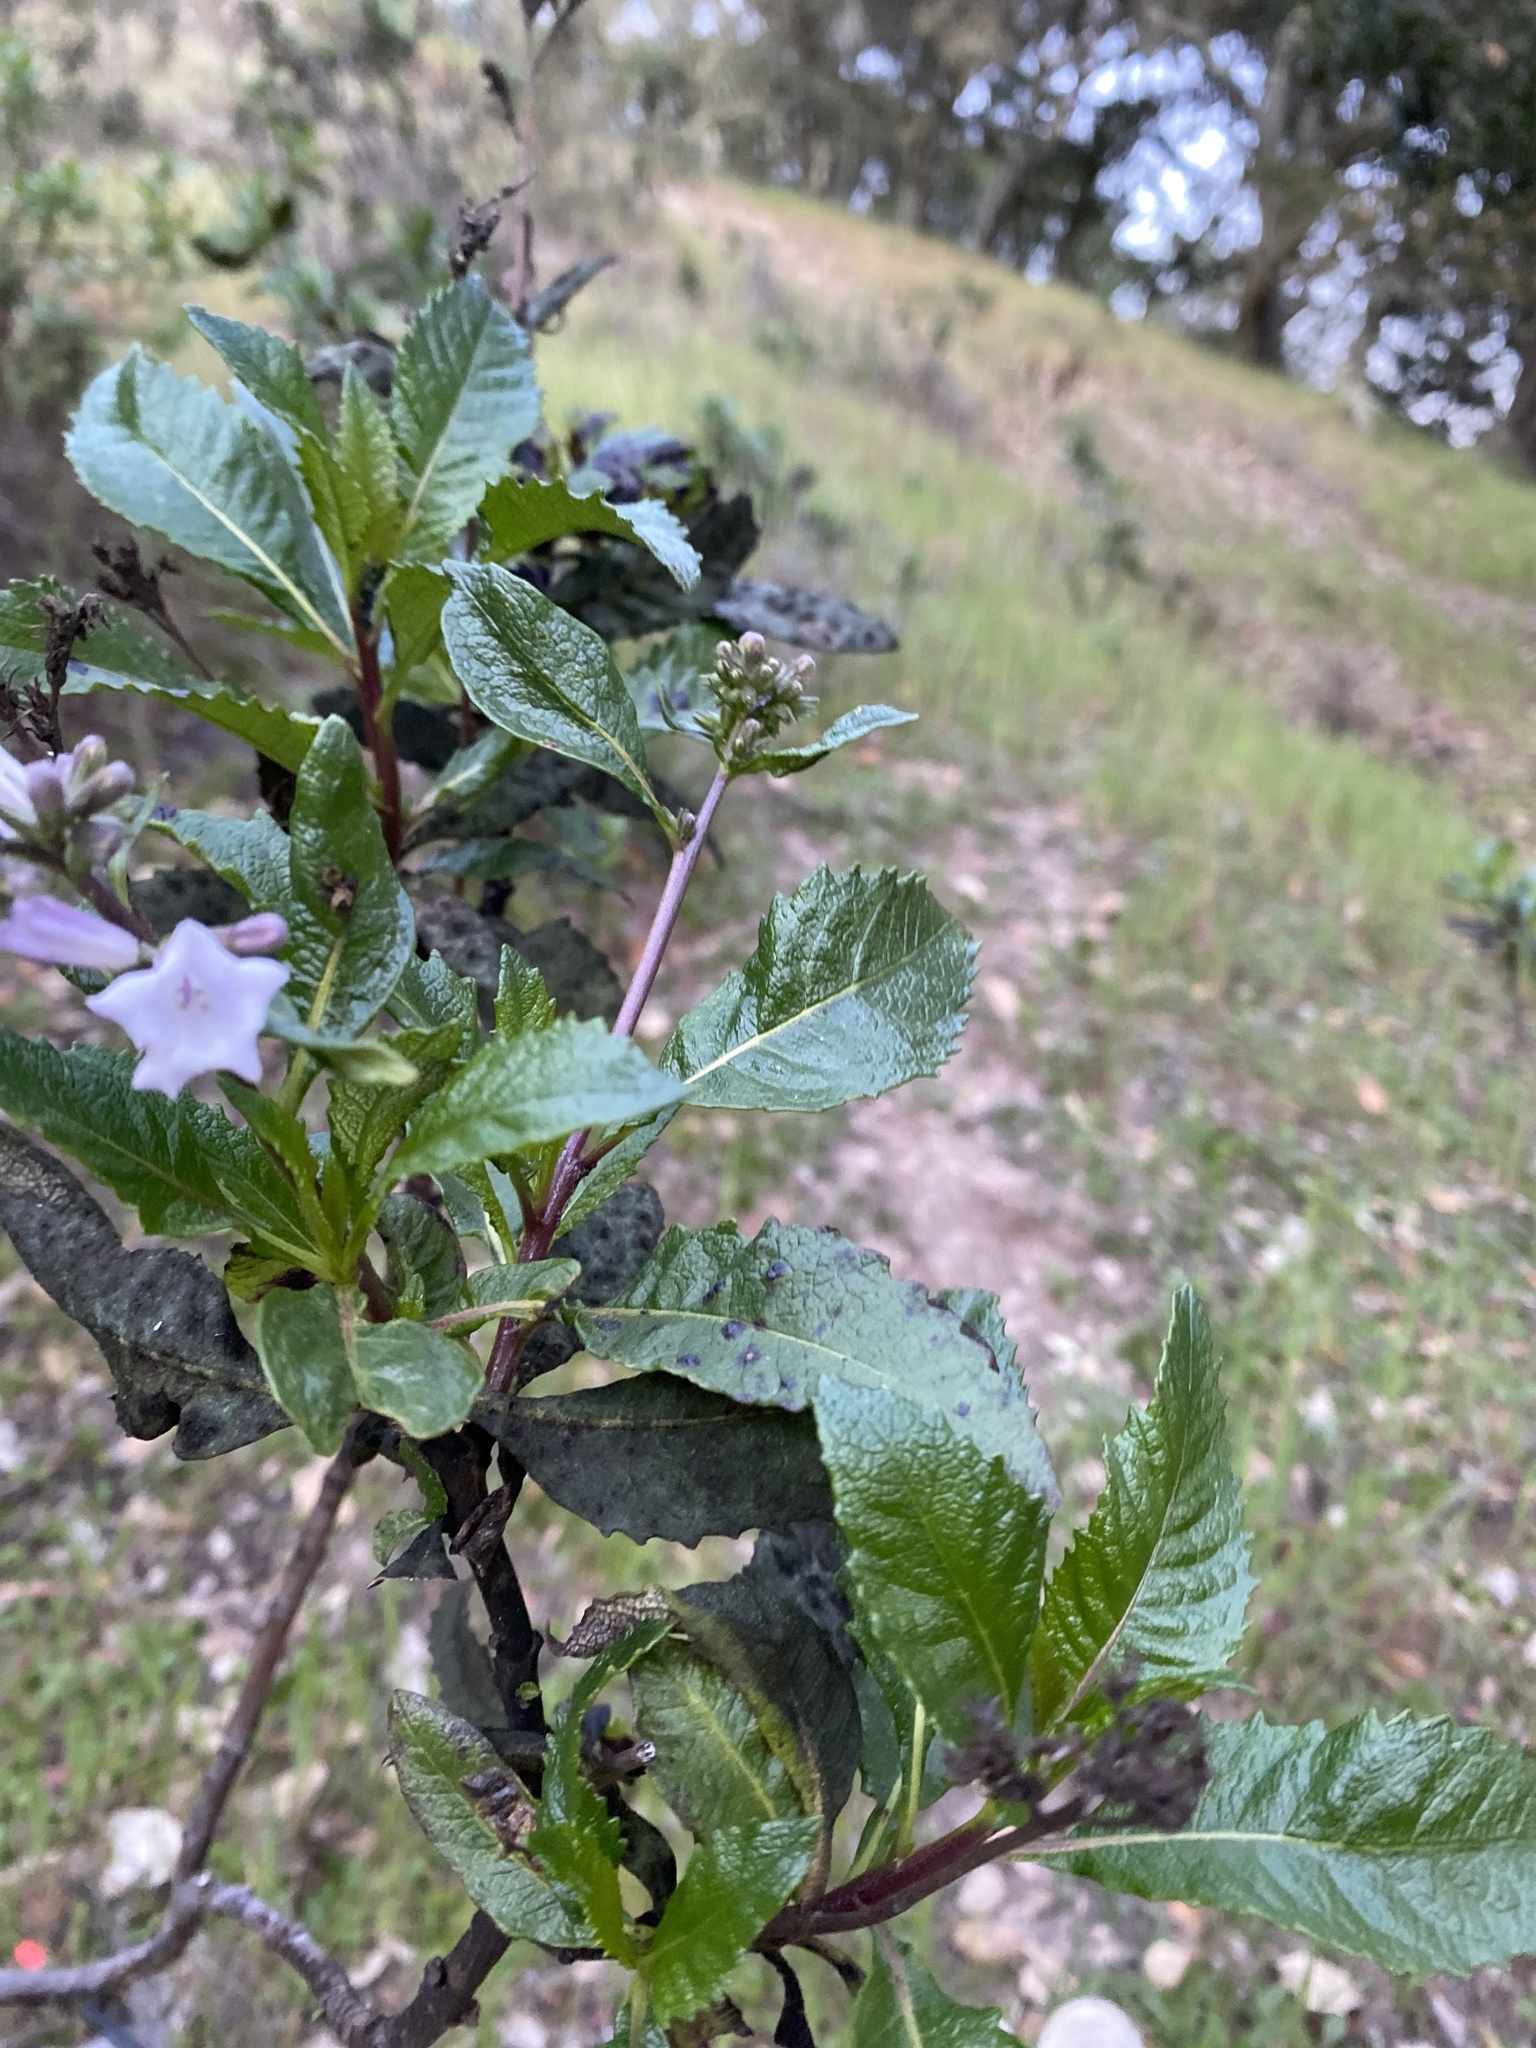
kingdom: Plantae
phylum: Tracheophyta
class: Magnoliopsida
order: Boraginales
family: Namaceae
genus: Eriodictyon
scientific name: Eriodictyon californicum
